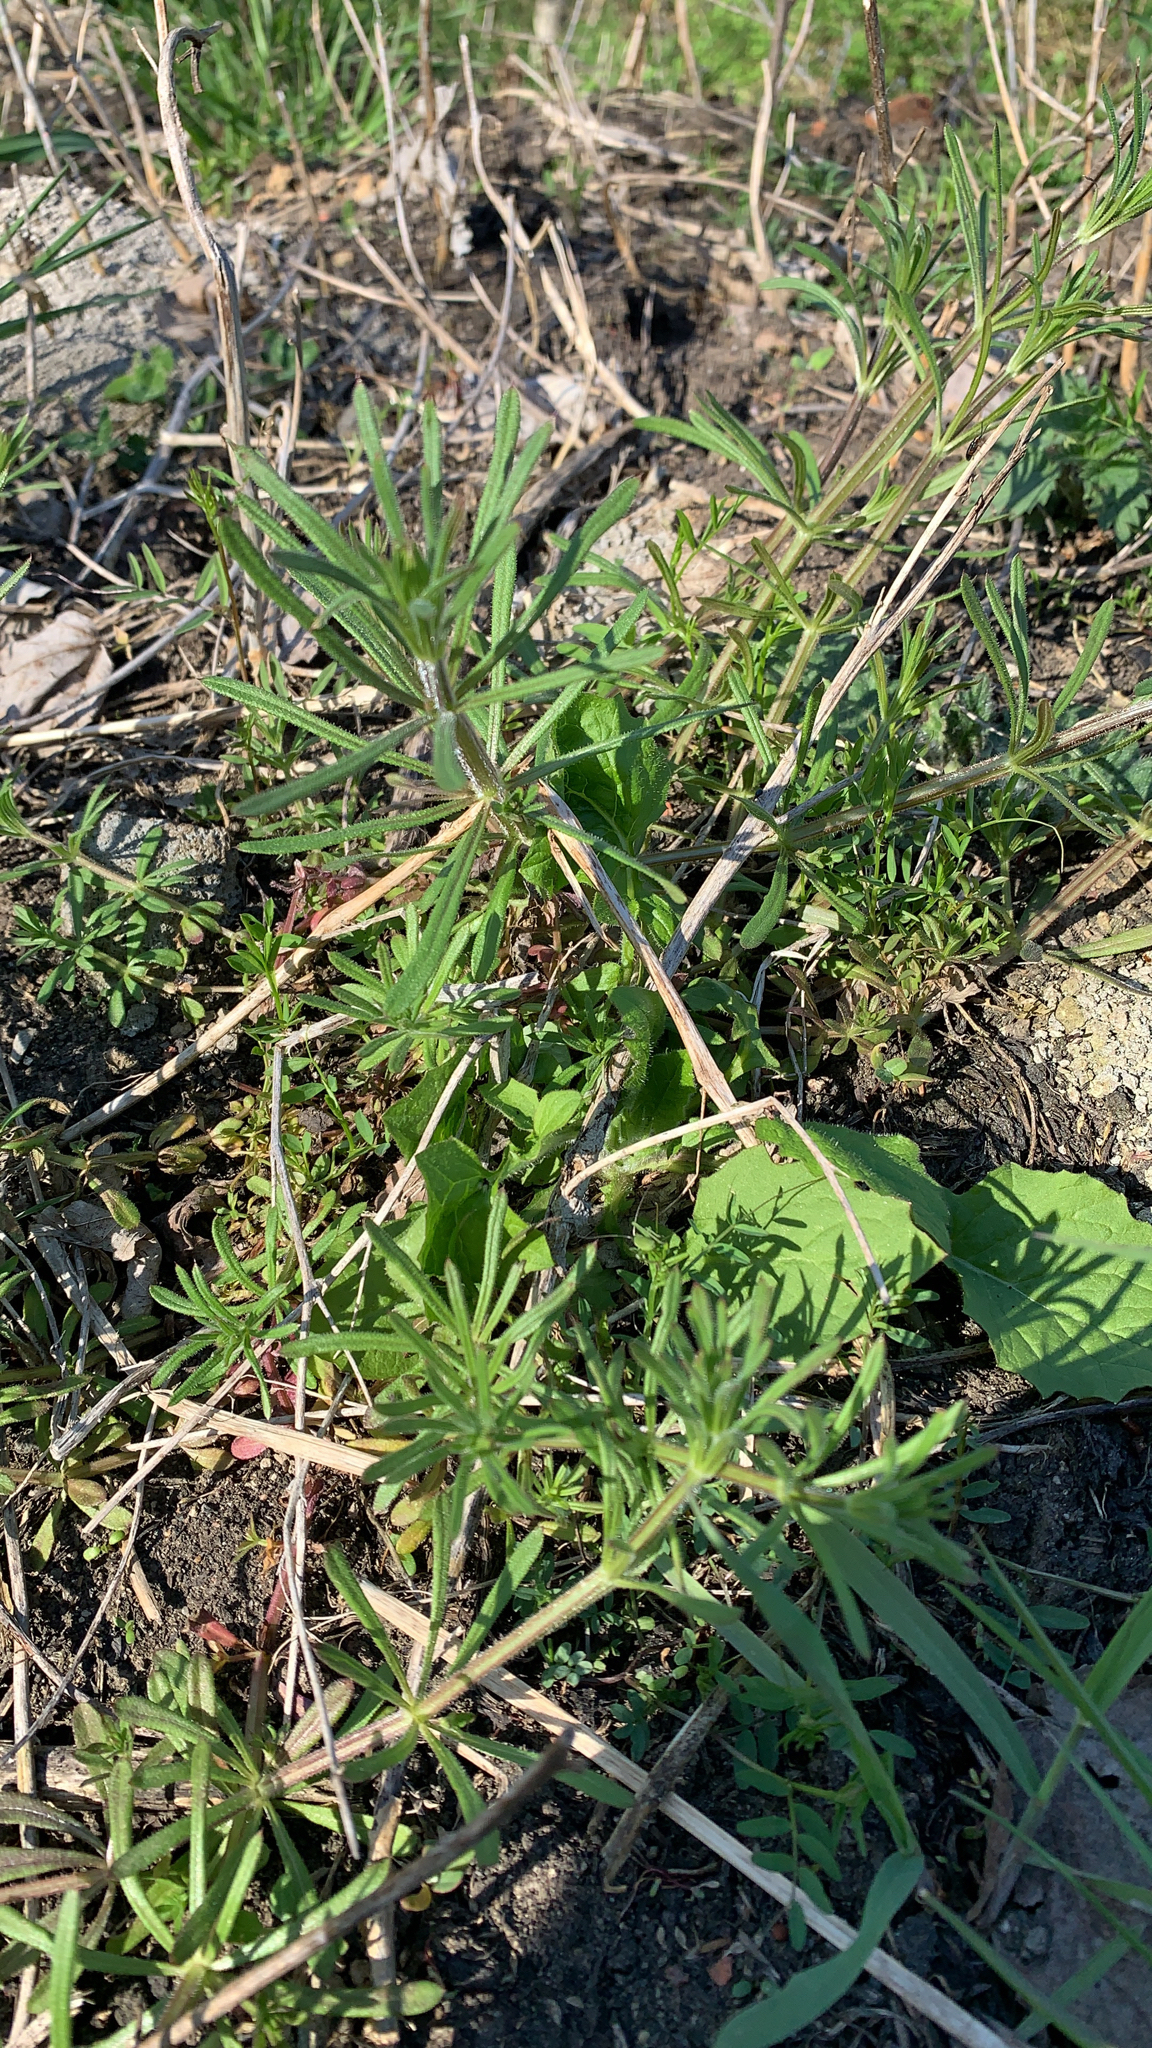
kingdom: Plantae
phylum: Tracheophyta
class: Magnoliopsida
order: Gentianales
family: Rubiaceae
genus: Galium
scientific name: Galium aparine
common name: Cleavers
